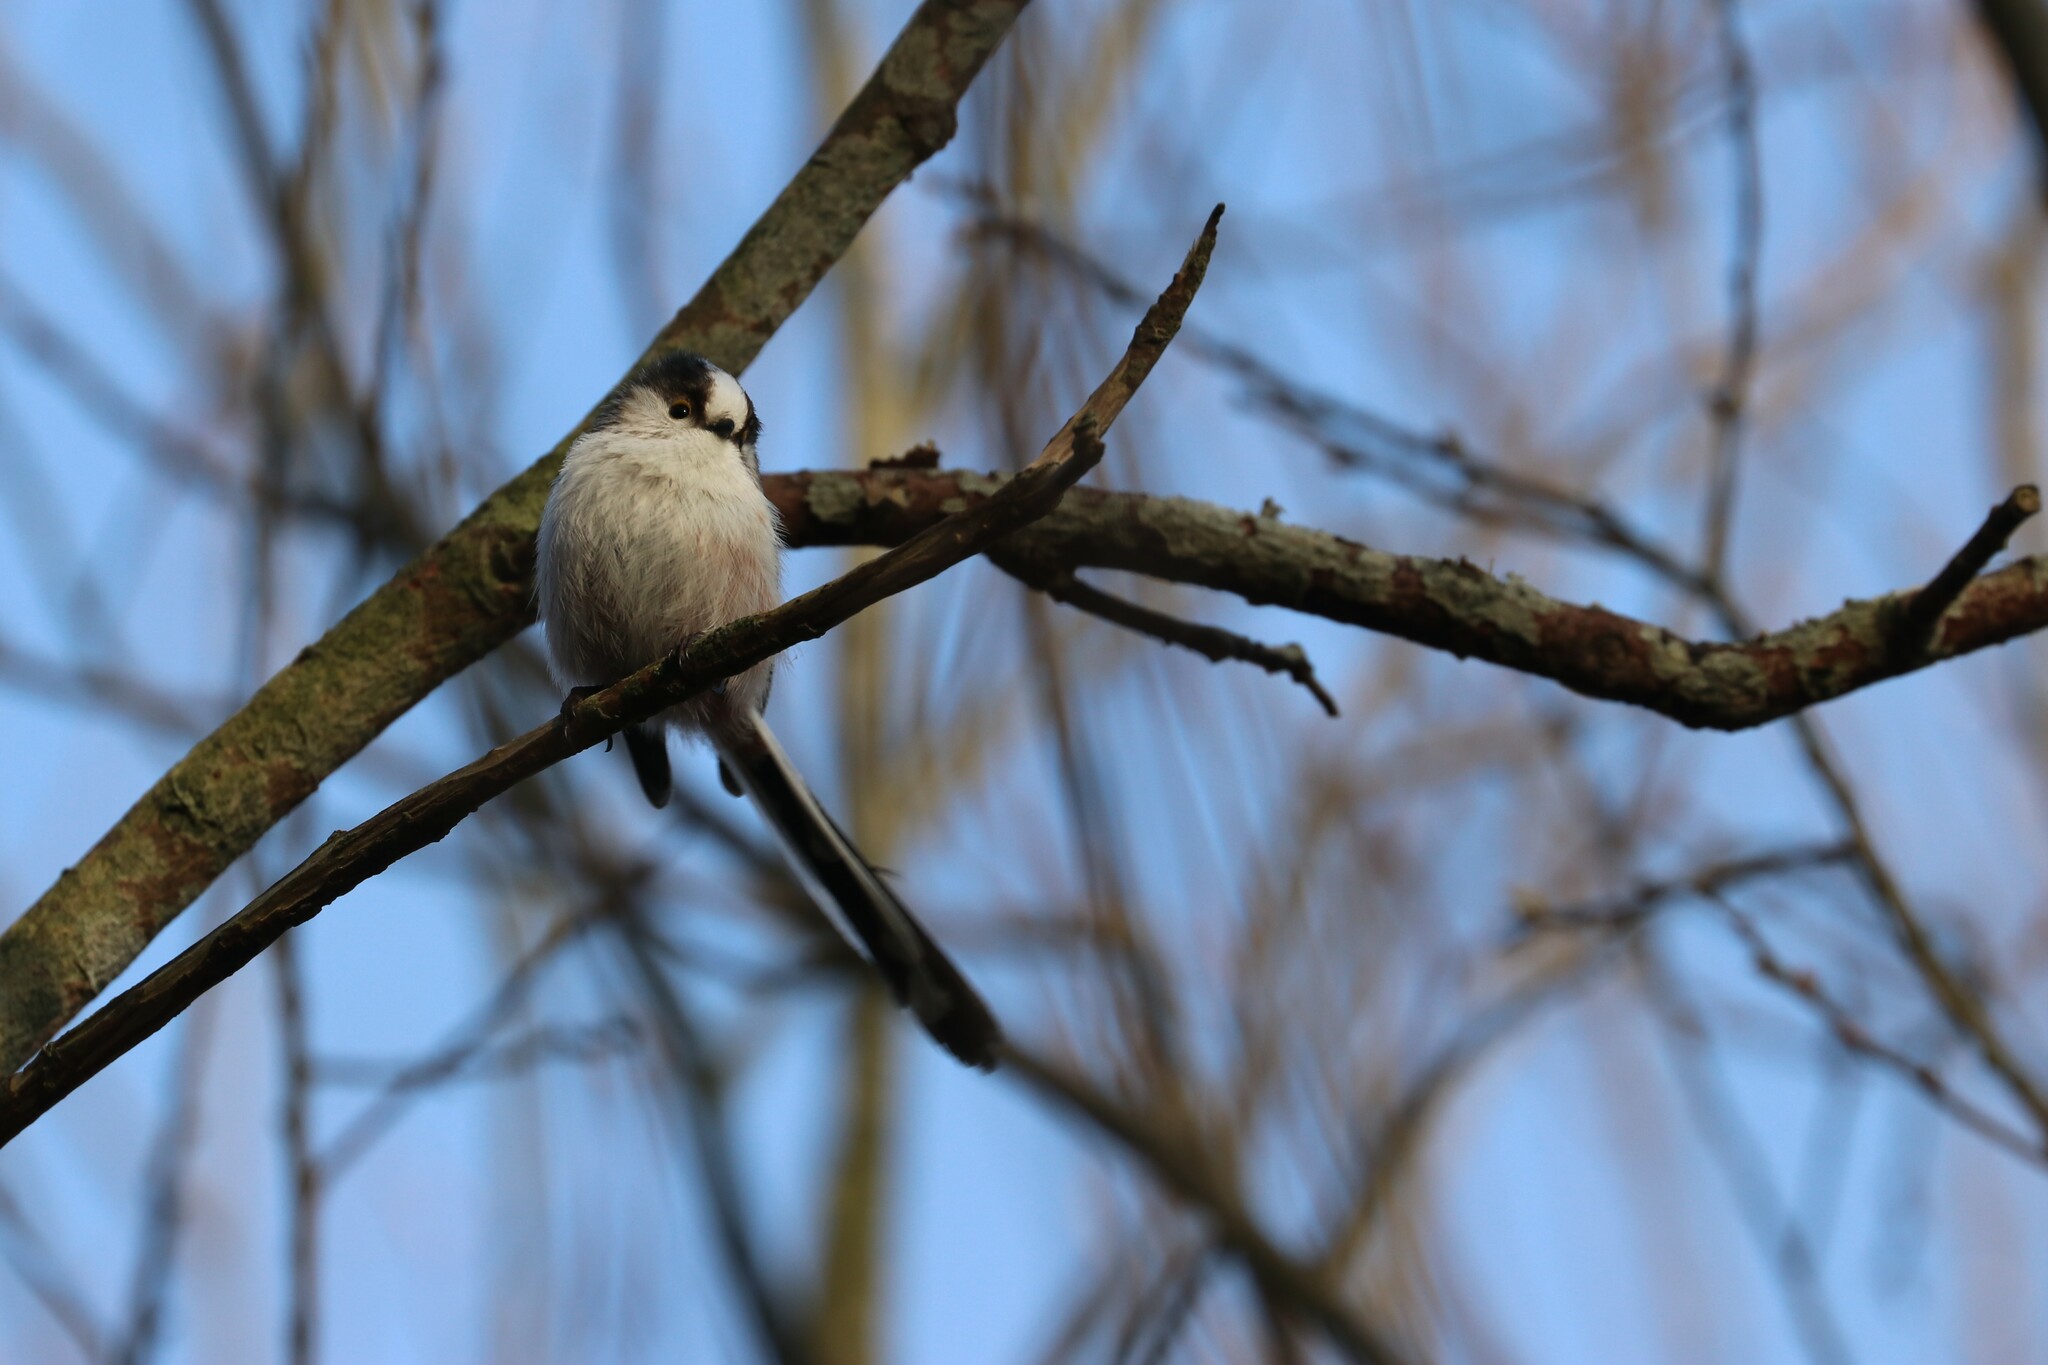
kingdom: Animalia
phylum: Chordata
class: Aves
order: Passeriformes
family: Aegithalidae
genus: Aegithalos
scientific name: Aegithalos caudatus
